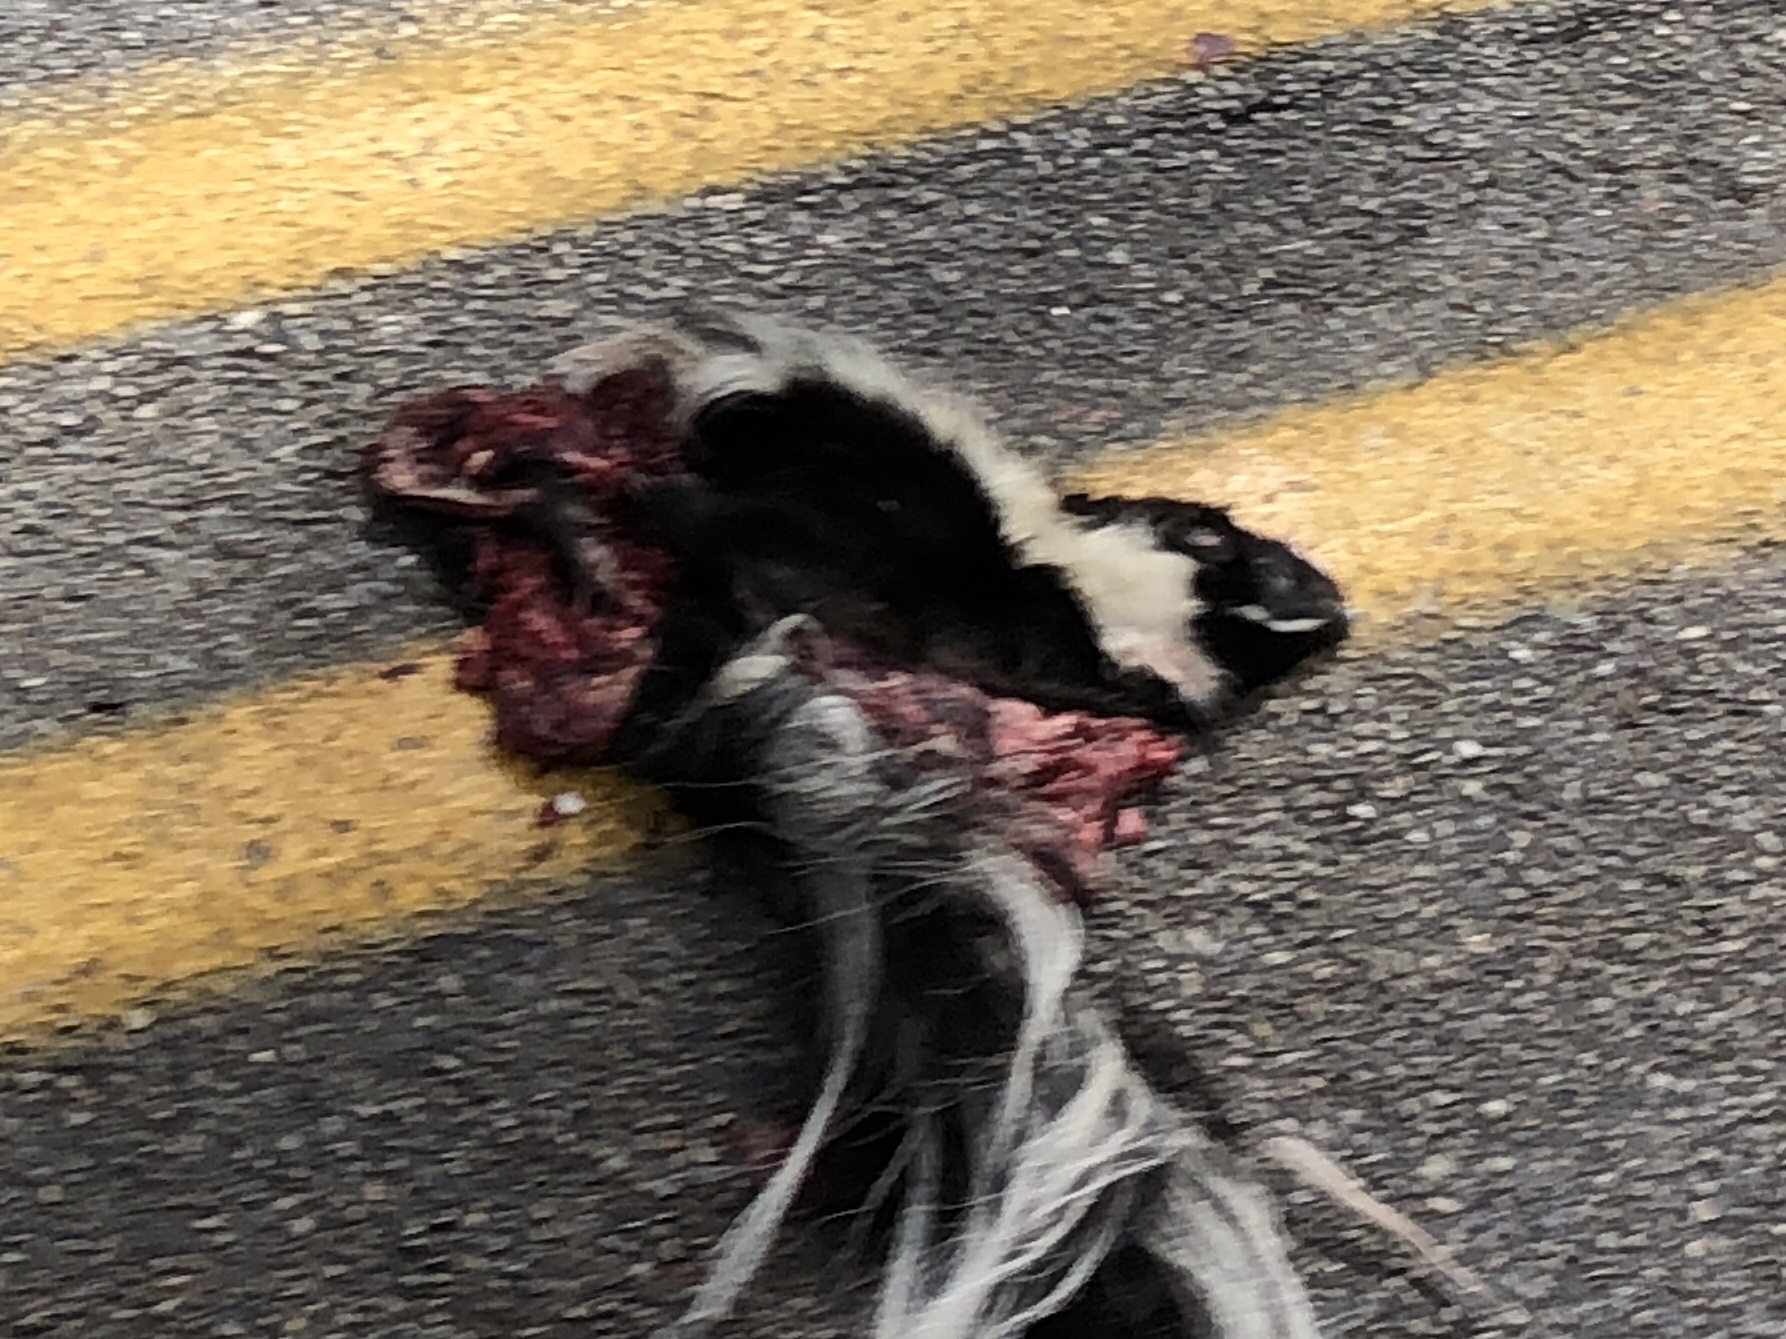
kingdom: Animalia
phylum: Chordata
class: Mammalia
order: Carnivora
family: Mephitidae
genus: Mephitis
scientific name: Mephitis mephitis
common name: Striped skunk
